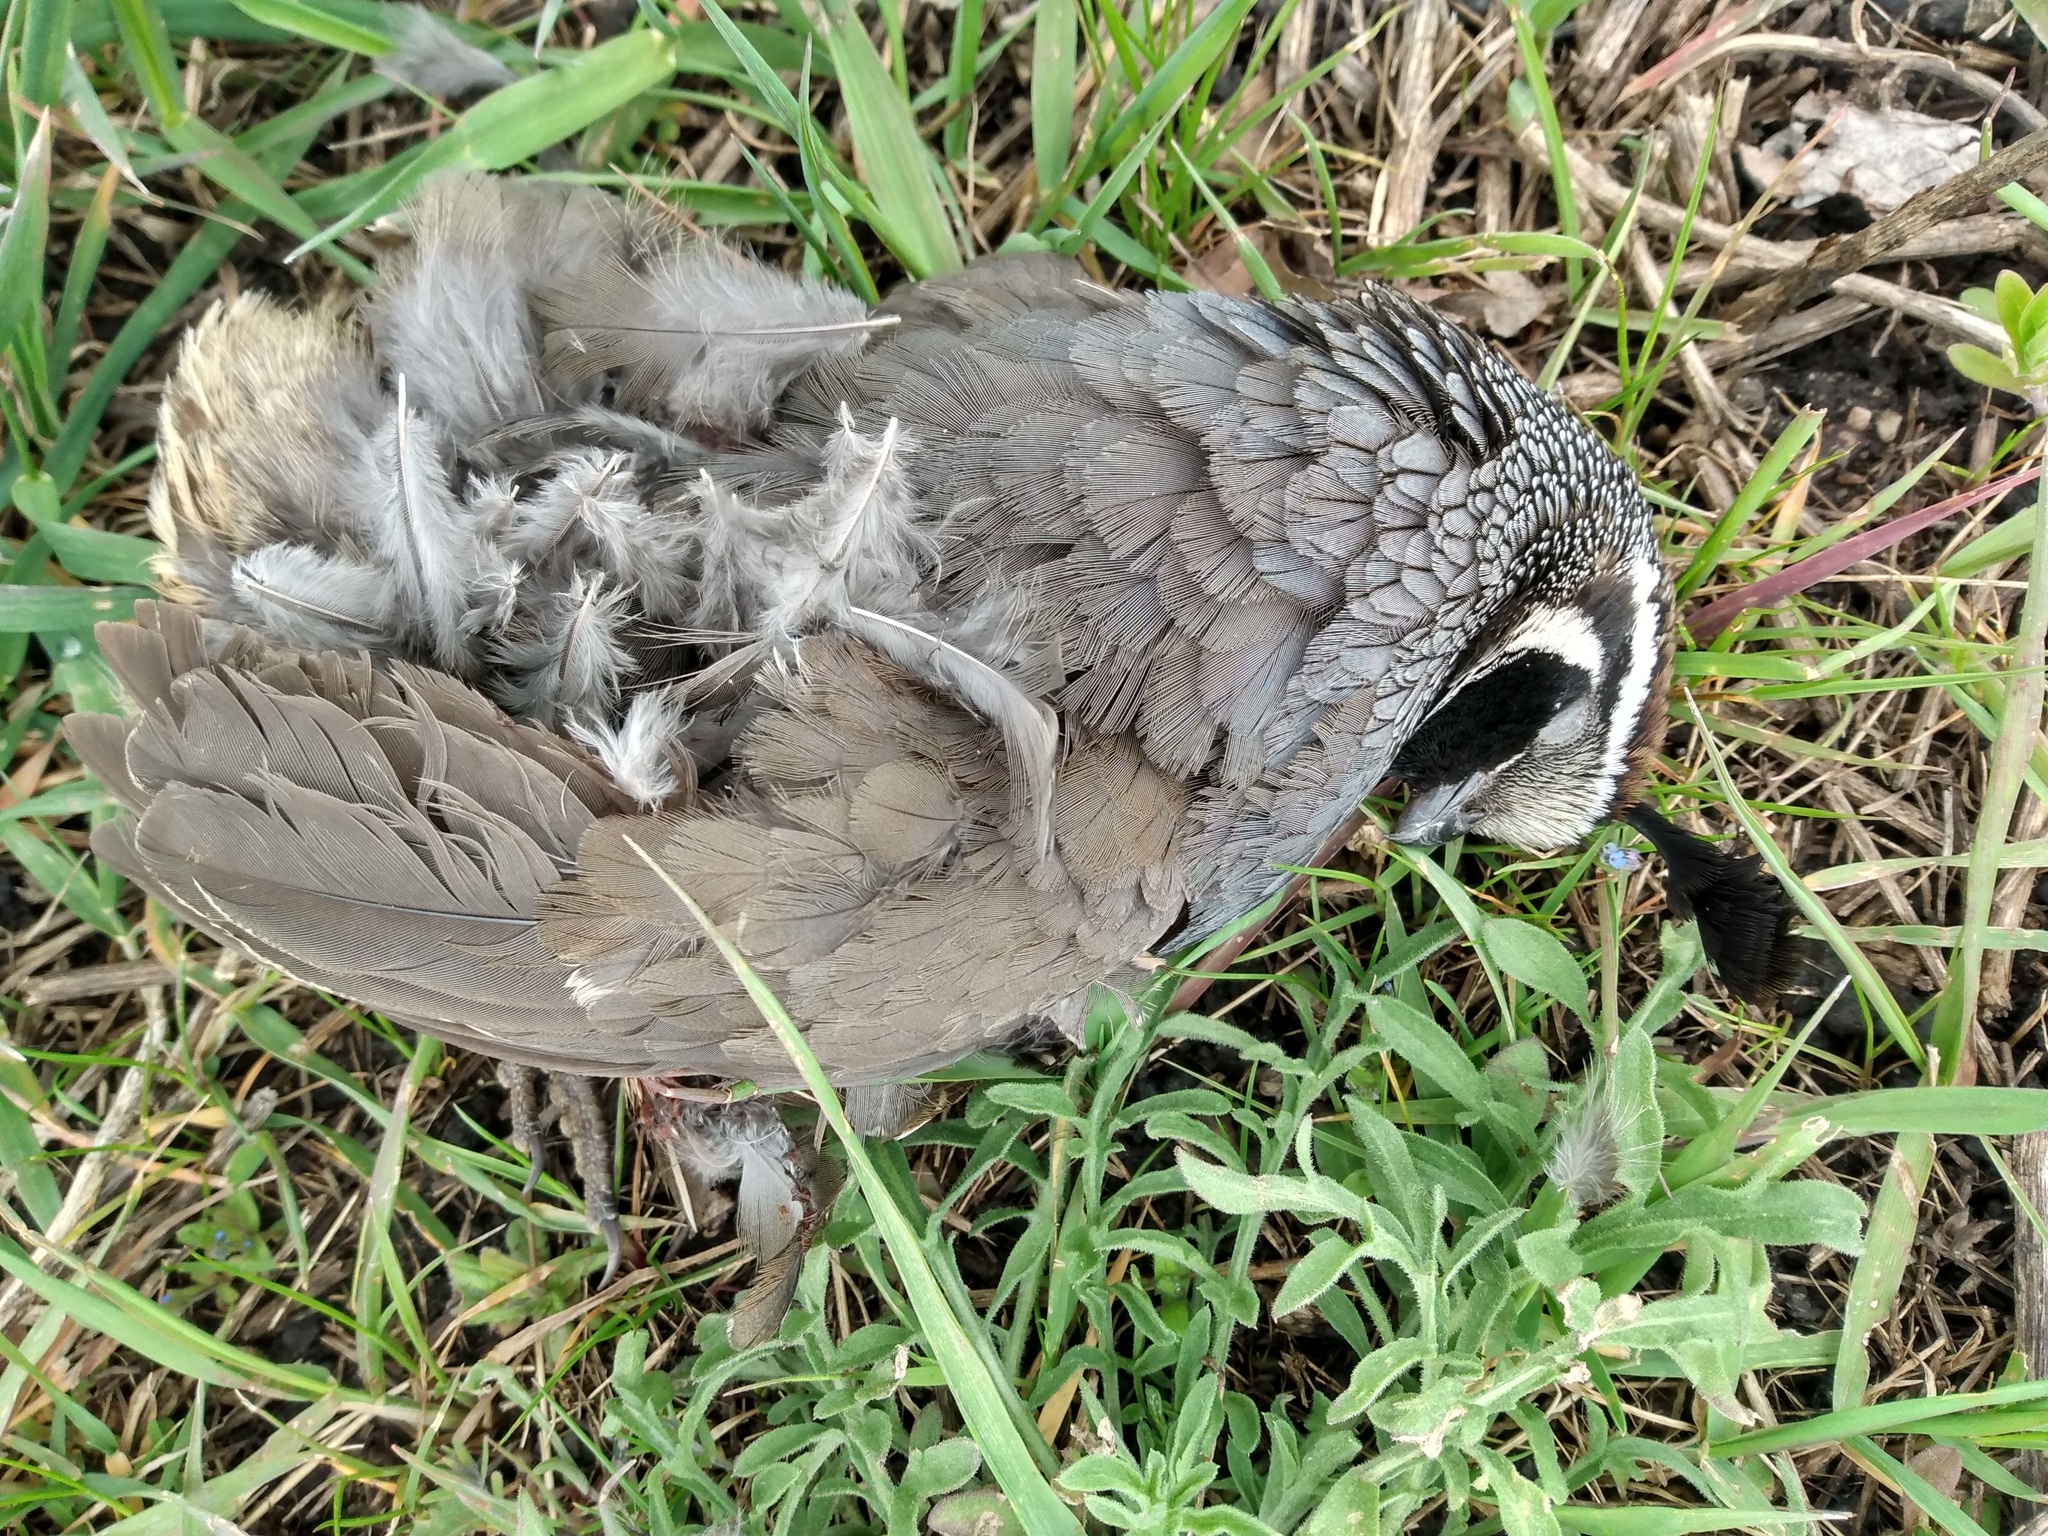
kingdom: Animalia
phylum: Chordata
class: Aves
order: Galliformes
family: Odontophoridae
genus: Callipepla
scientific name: Callipepla californica
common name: California quail
